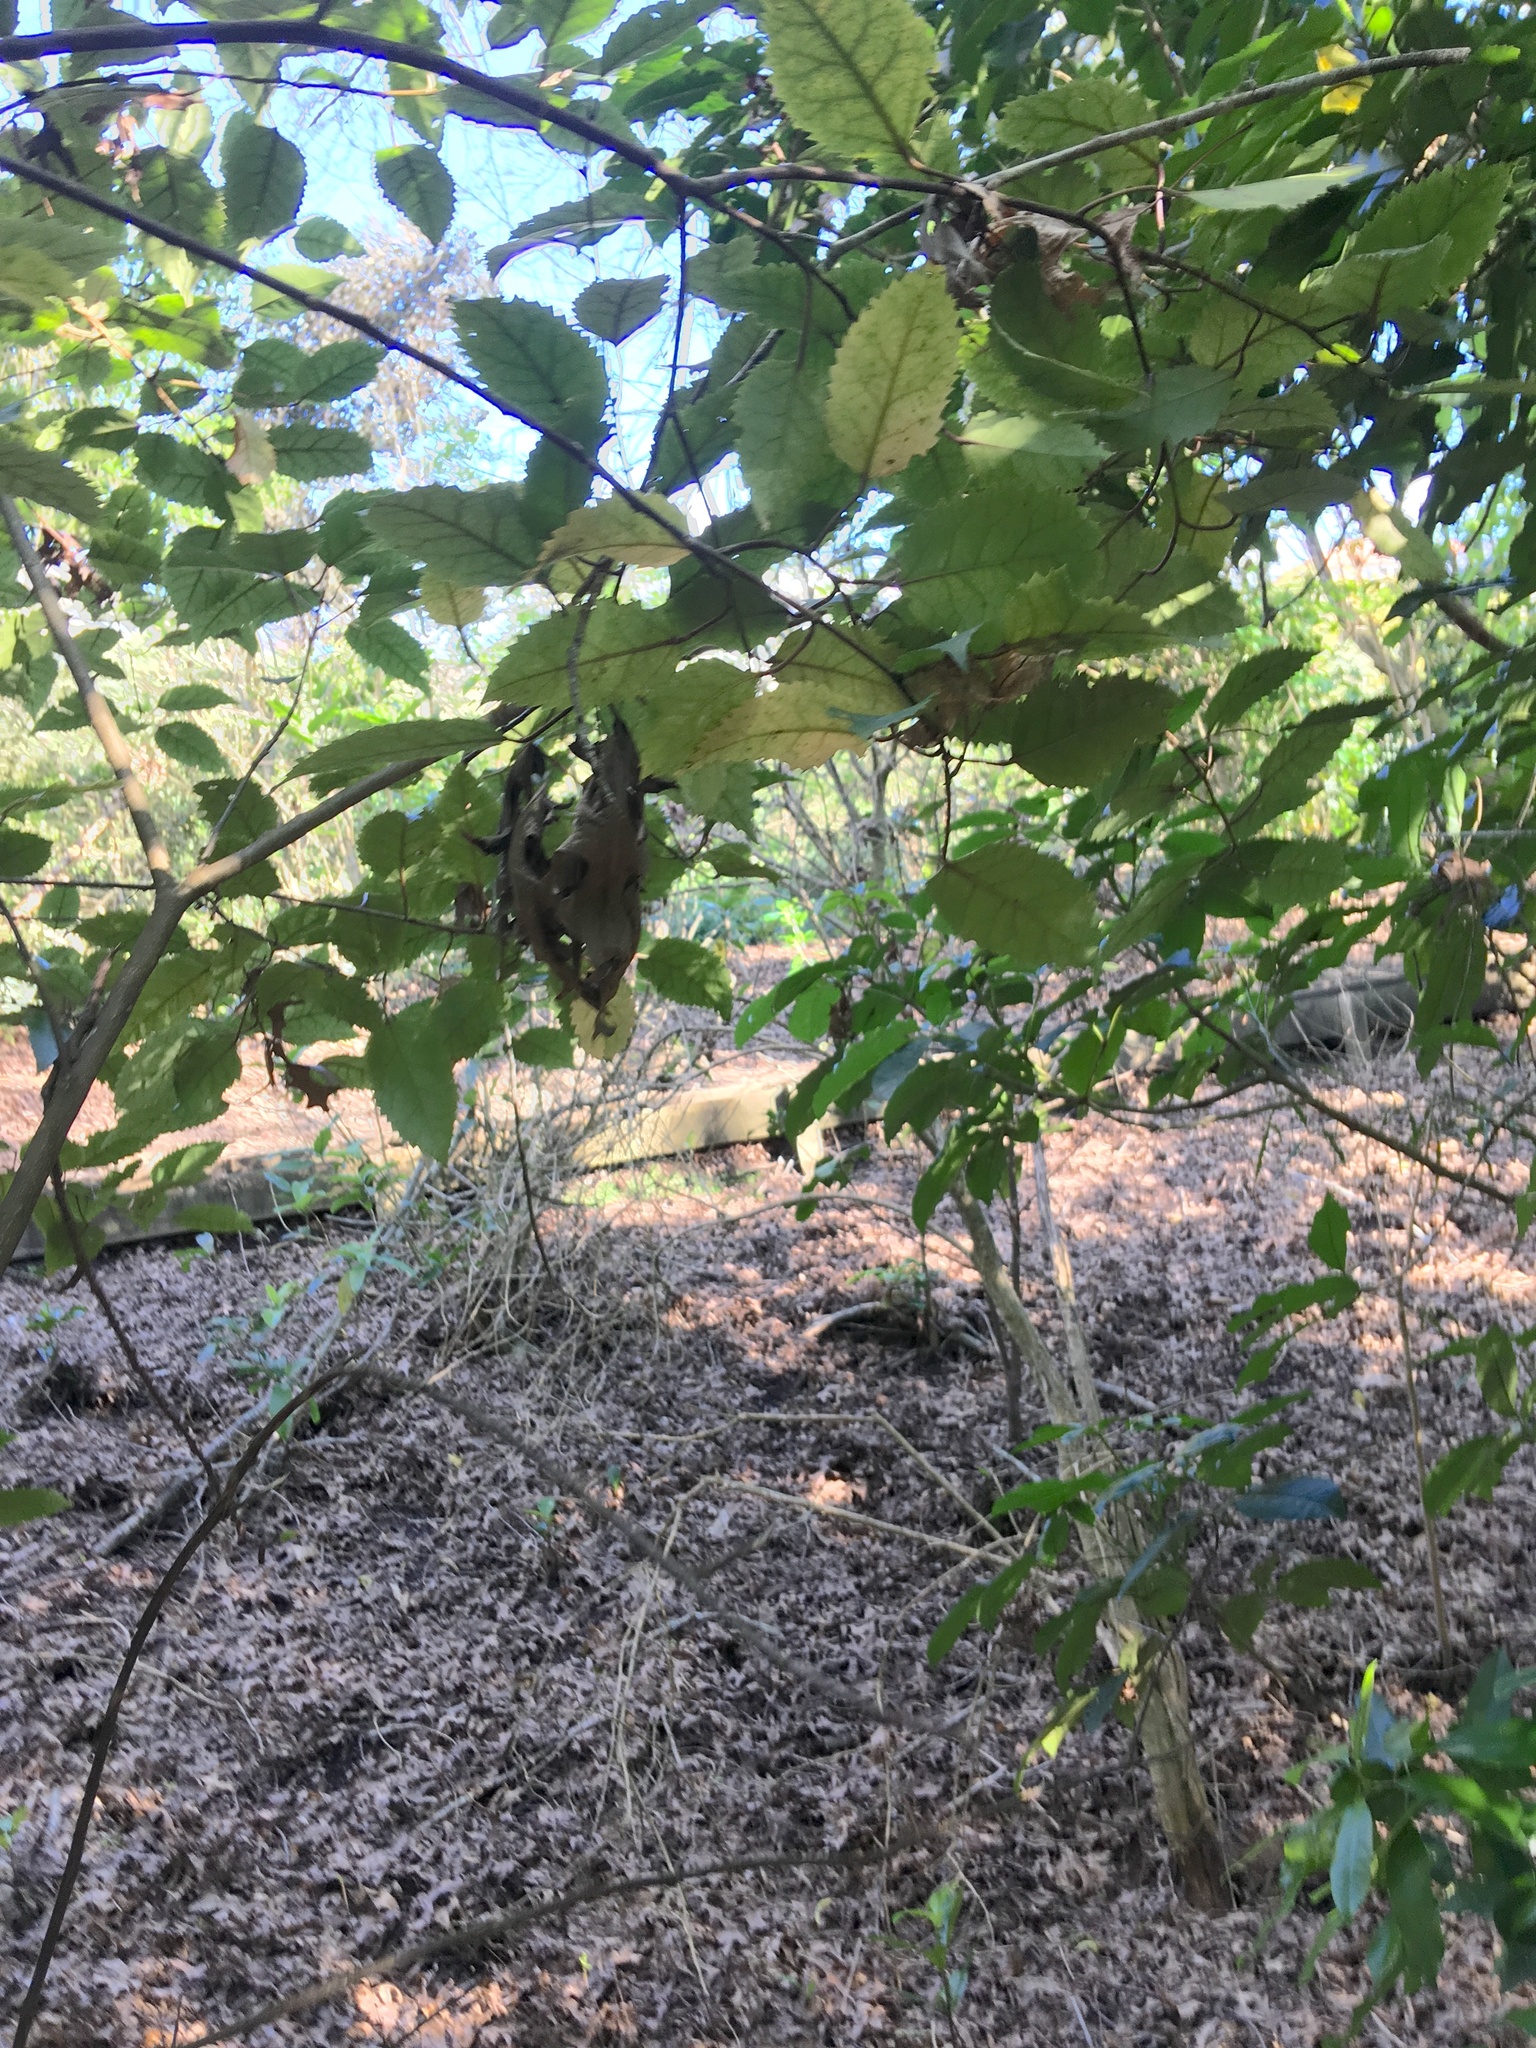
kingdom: Plantae
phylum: Tracheophyta
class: Magnoliopsida
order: Malvales
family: Malvaceae
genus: Hoheria
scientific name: Hoheria populnea
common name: Lacebark
